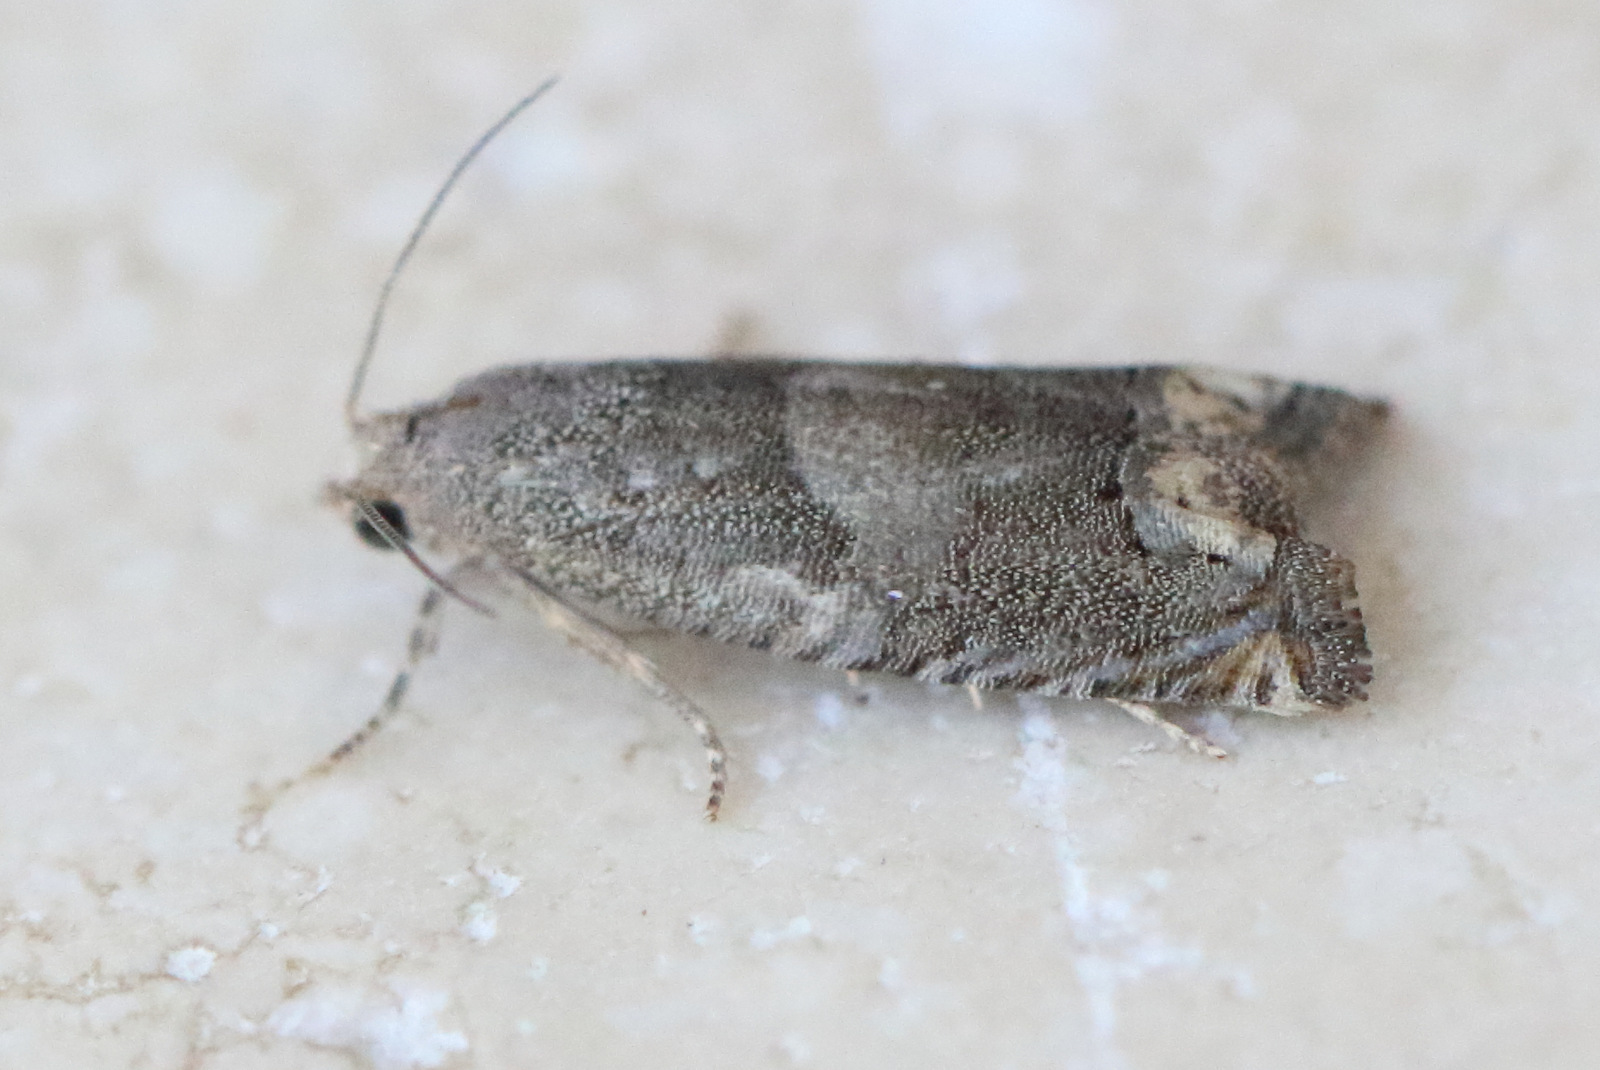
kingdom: Animalia
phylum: Arthropoda
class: Insecta
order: Lepidoptera
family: Tortricidae
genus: Epiblema
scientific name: Epiblema strenuana
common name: Ragweed borer moth
